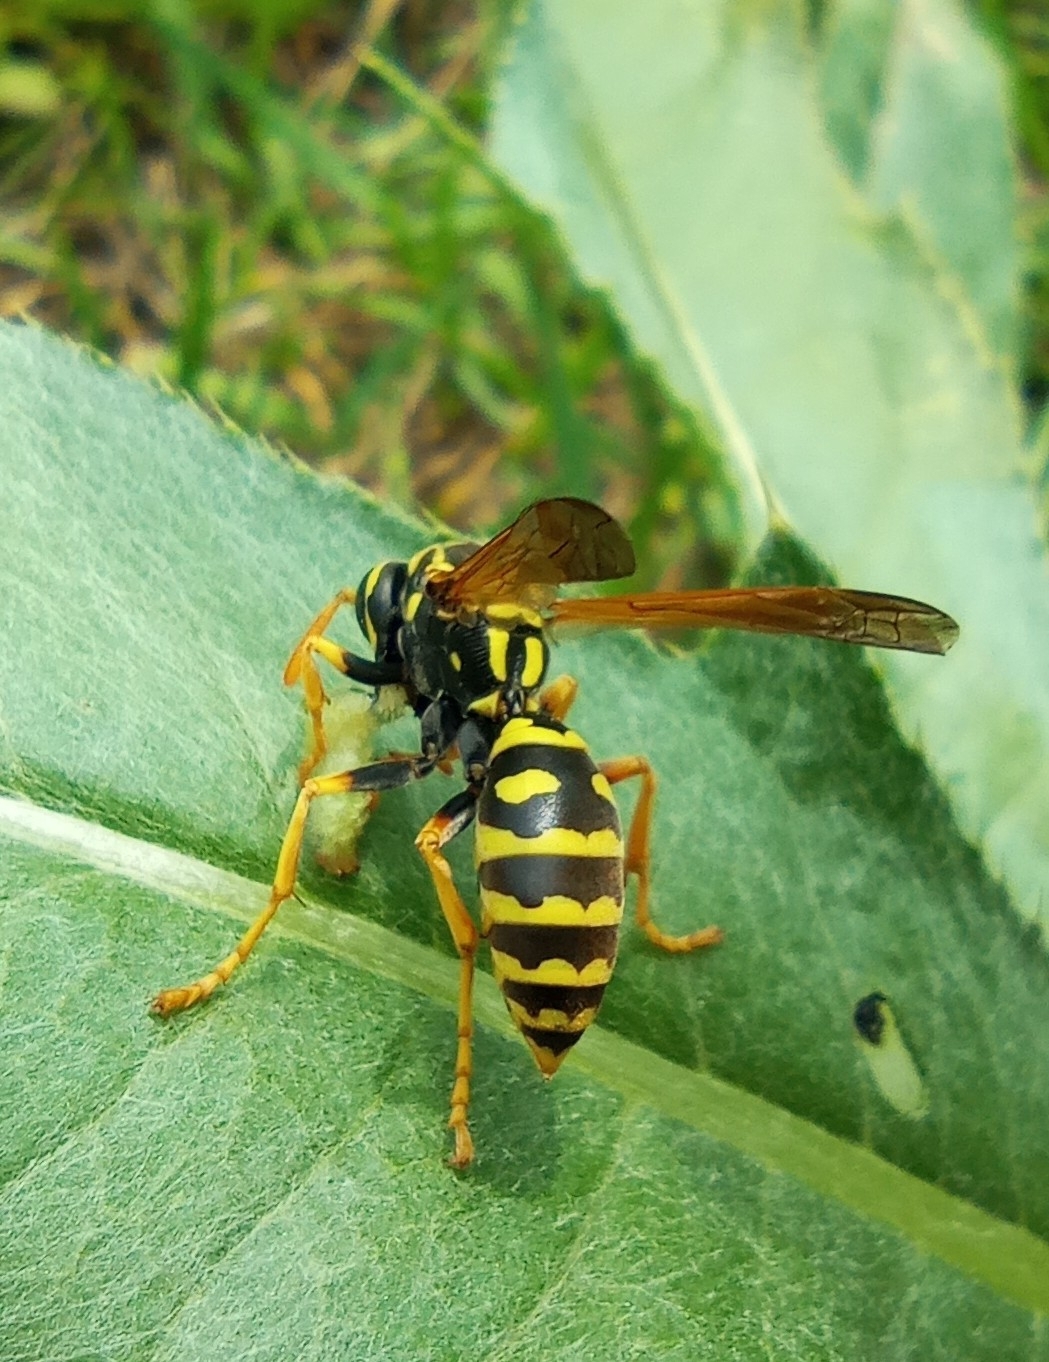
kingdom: Animalia
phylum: Arthropoda
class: Insecta
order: Hymenoptera
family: Eumenidae
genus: Polistes
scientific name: Polistes dominula
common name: Paper wasp
